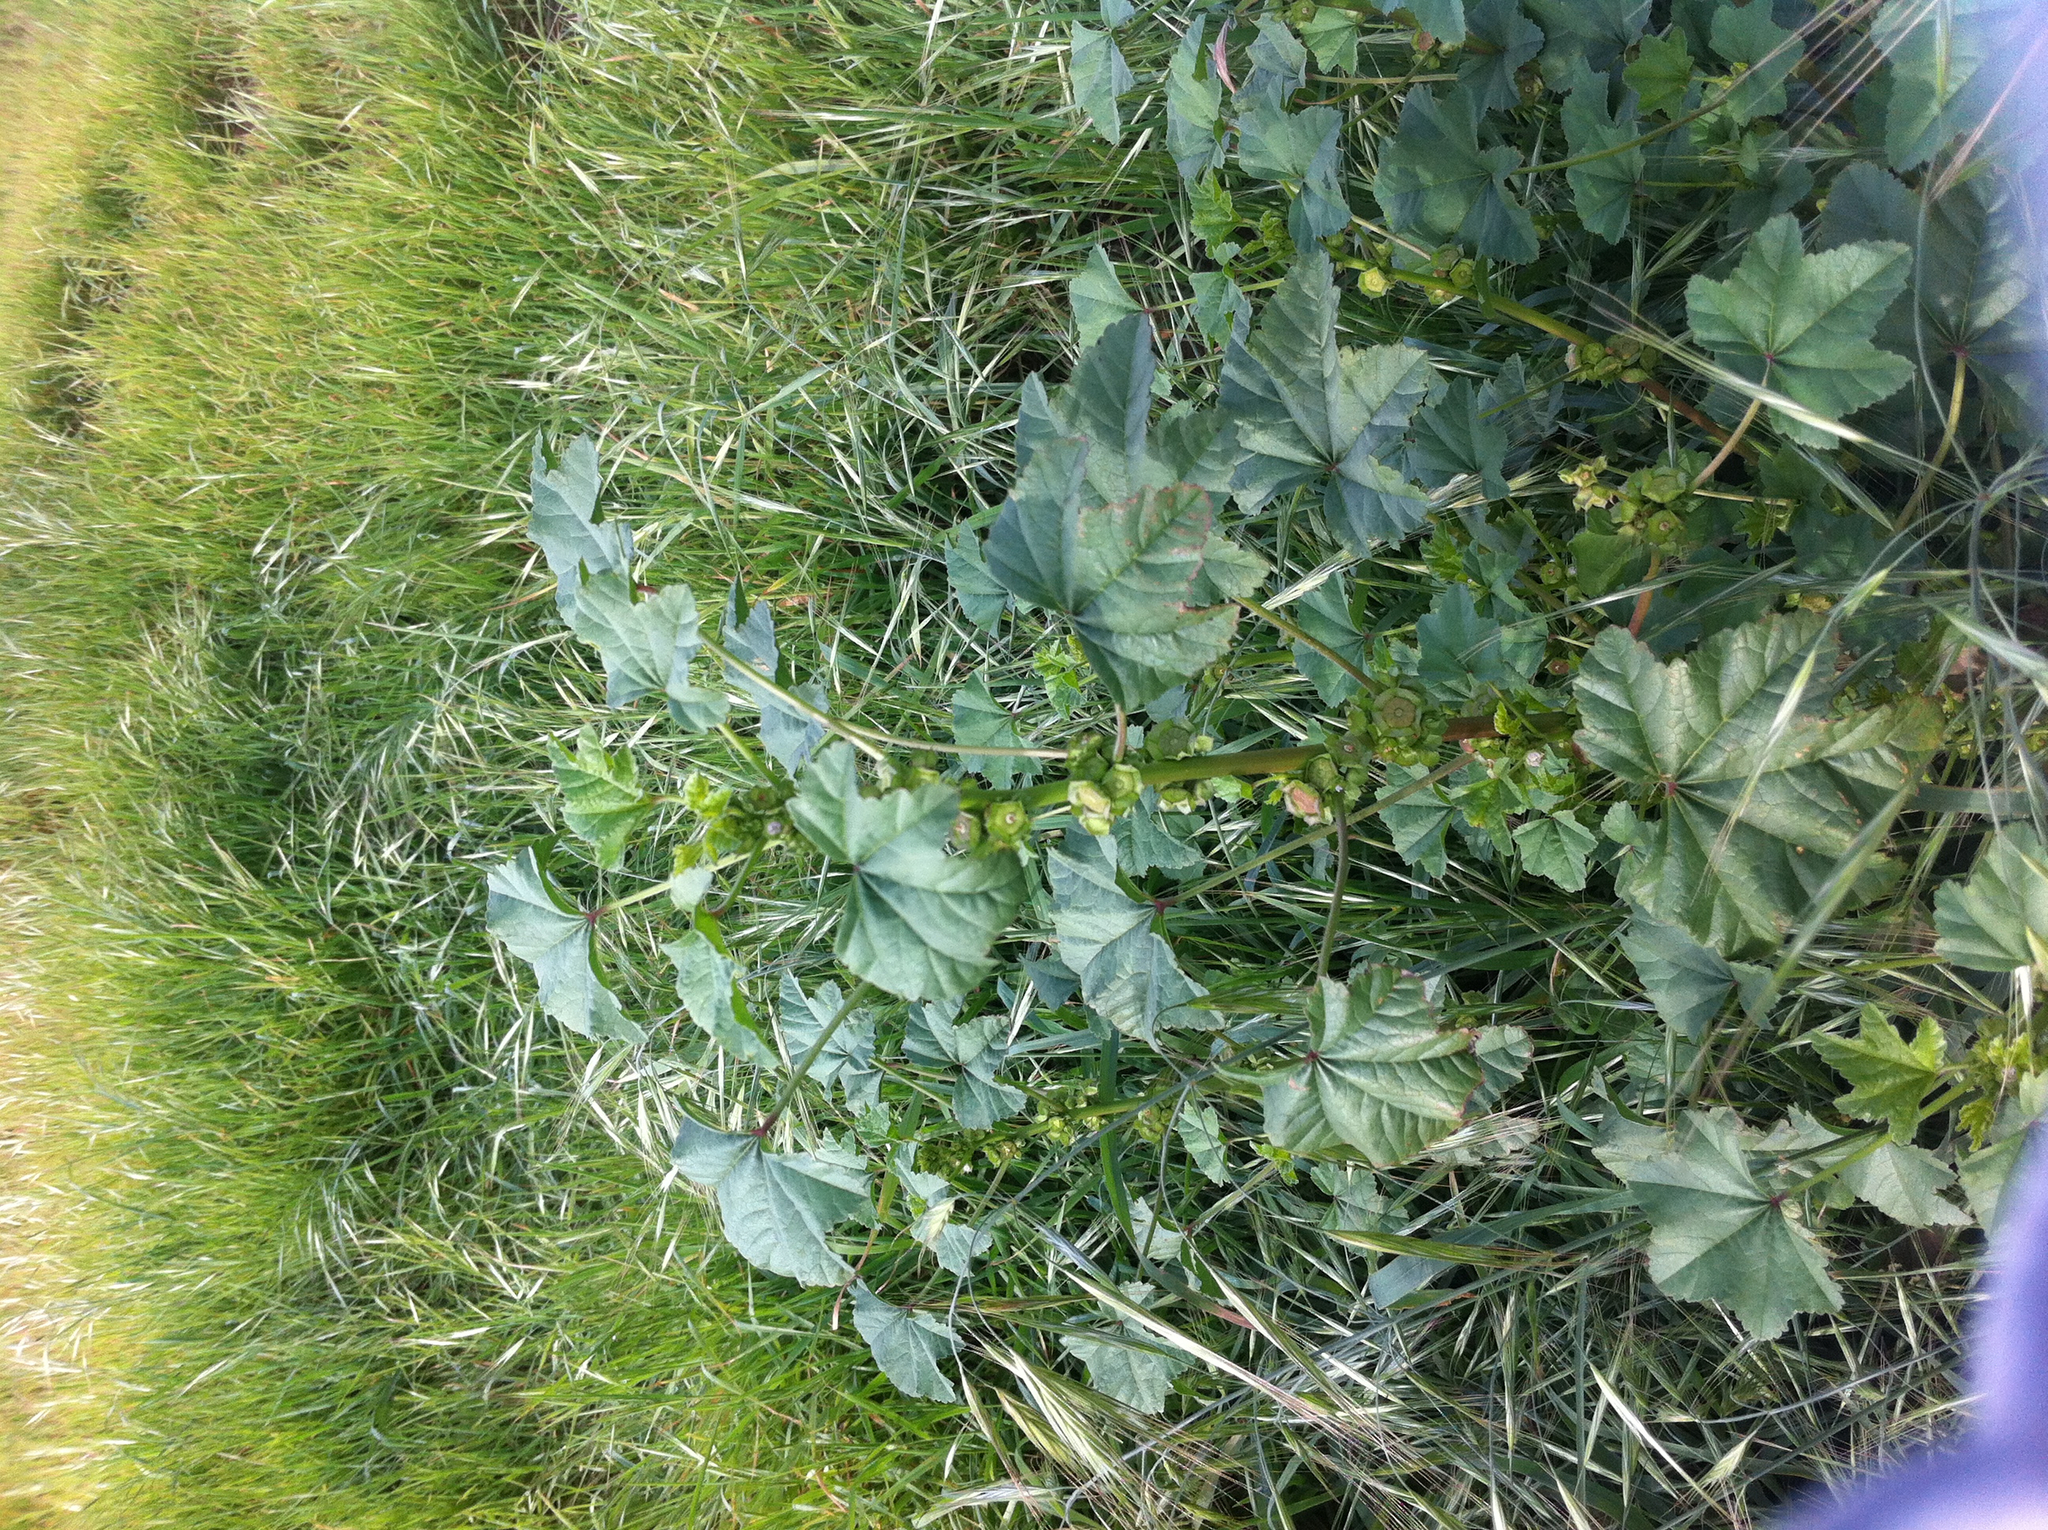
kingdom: Plantae
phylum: Tracheophyta
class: Magnoliopsida
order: Malvales
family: Malvaceae
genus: Malva
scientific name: Malva parviflora
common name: Least mallow
